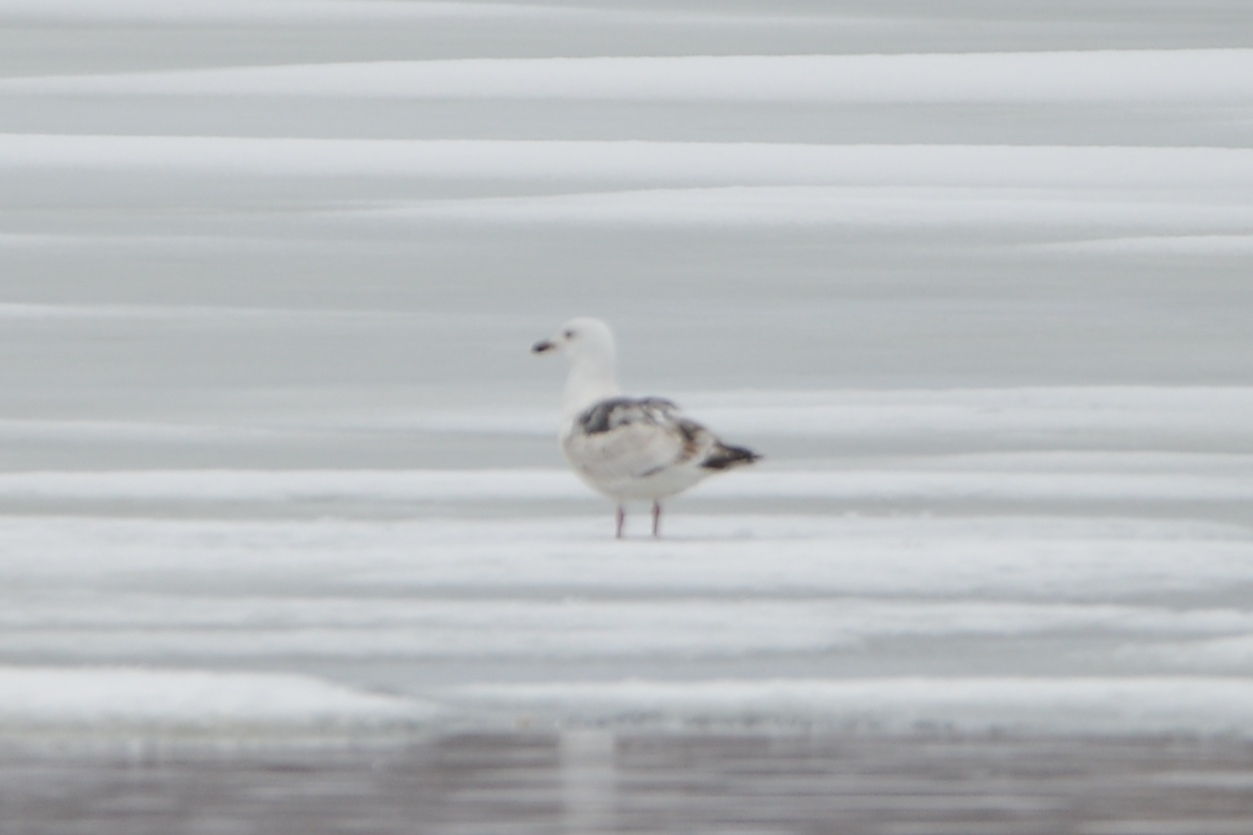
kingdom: Animalia
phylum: Chordata
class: Aves
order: Charadriiformes
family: Laridae
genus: Larus
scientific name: Larus schistisagus
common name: Slaty-backed gull
